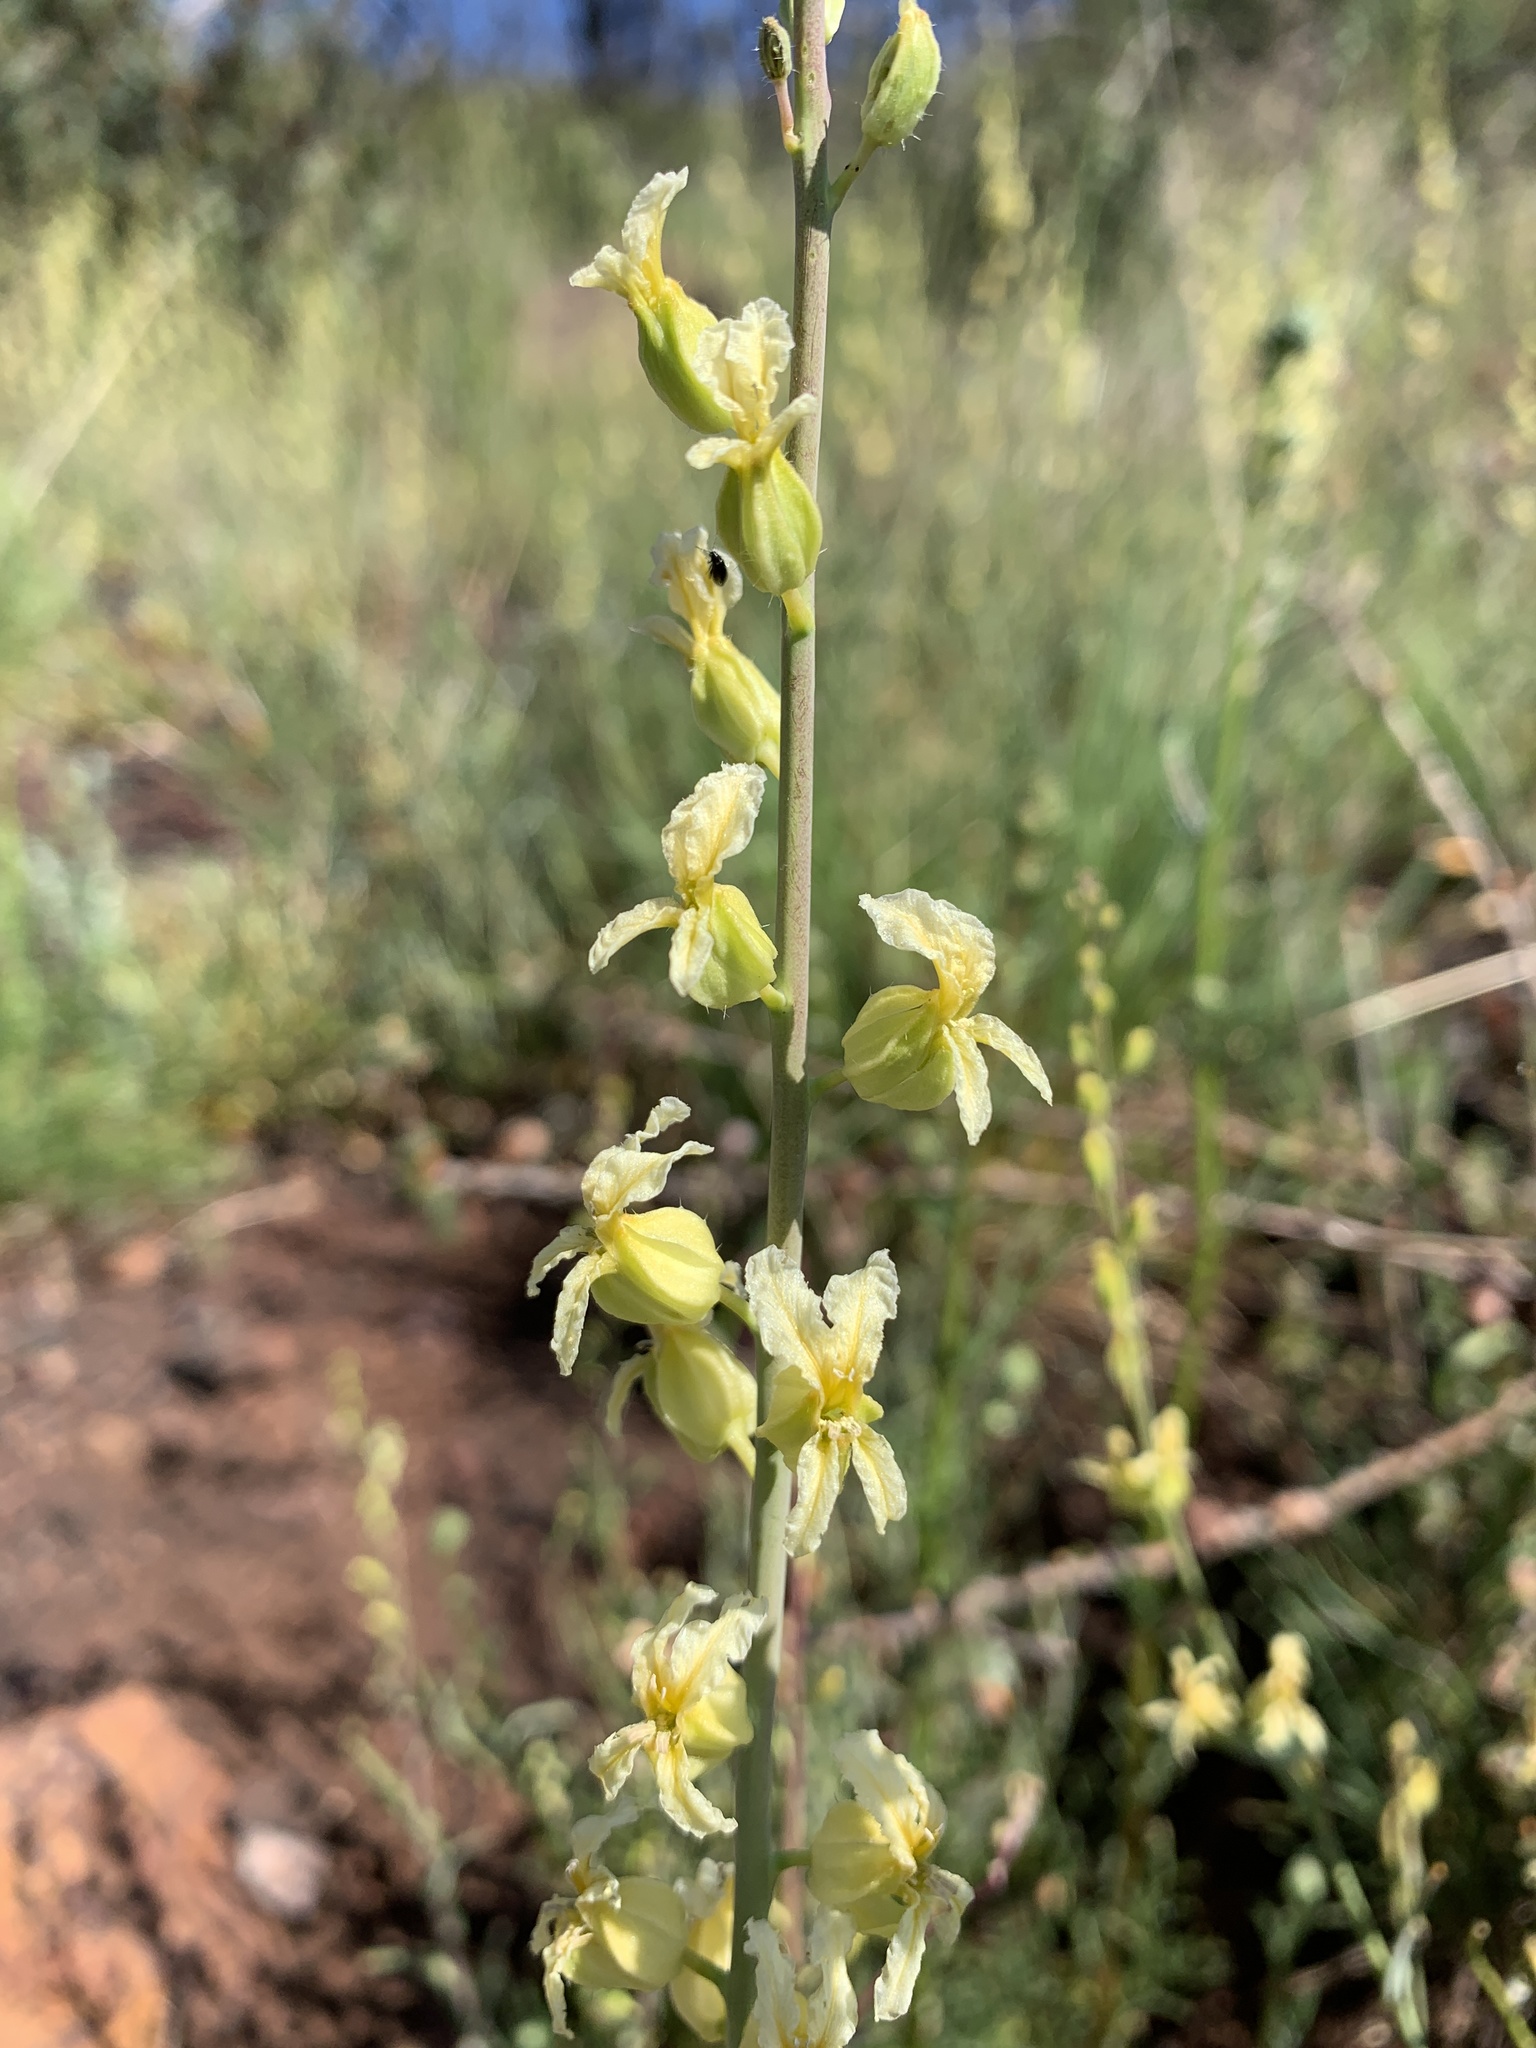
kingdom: Plantae
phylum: Tracheophyta
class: Magnoliopsida
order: Brassicales
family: Brassicaceae
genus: Streptanthus
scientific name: Streptanthus tortuosus
